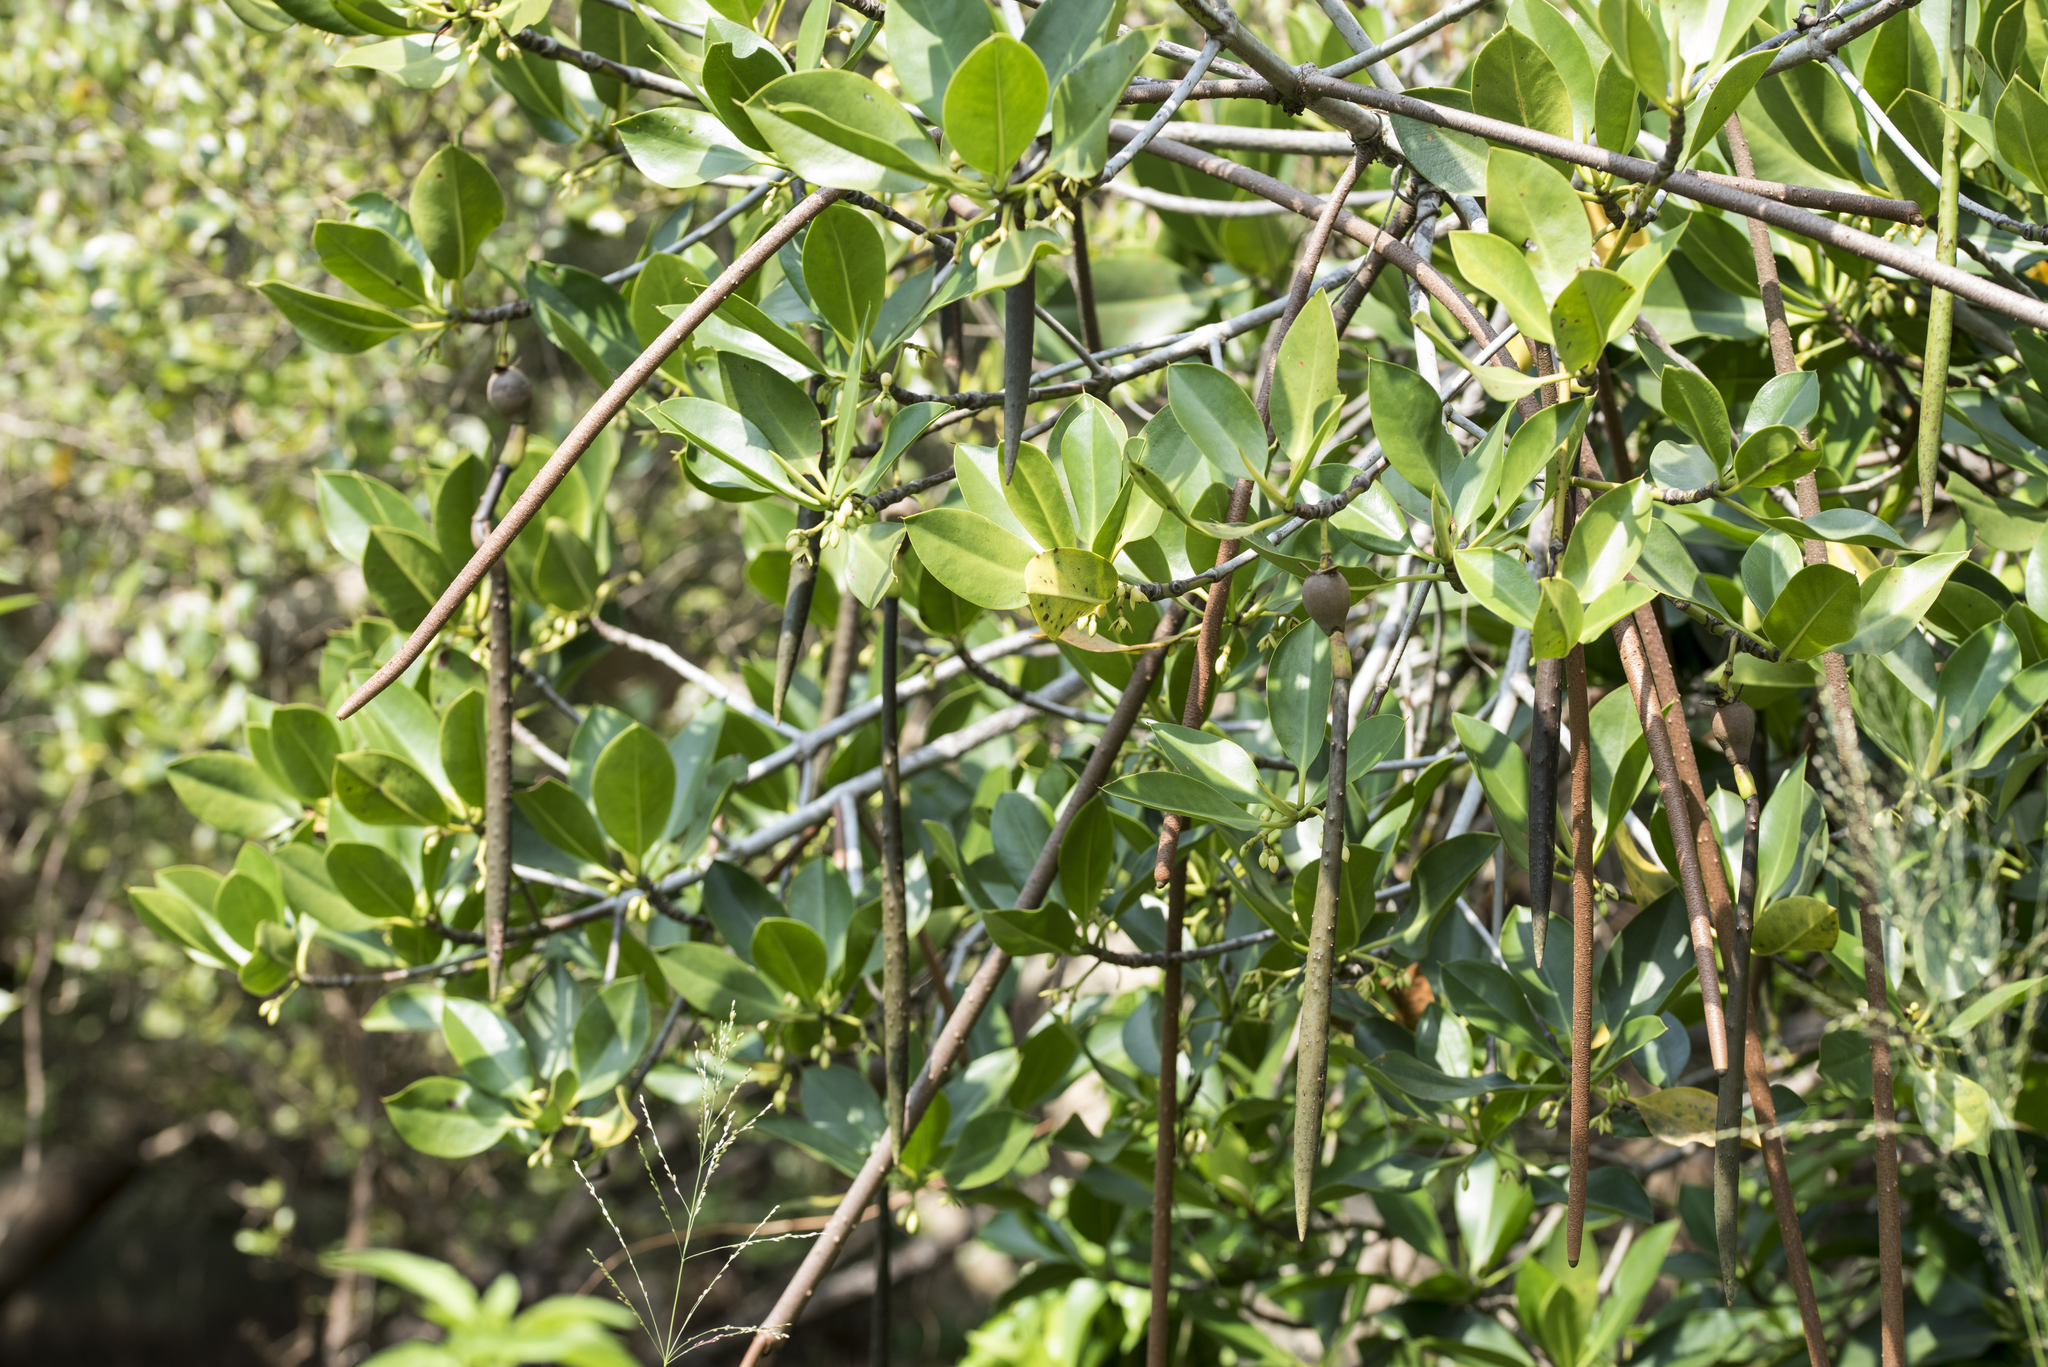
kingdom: Plantae
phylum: Tracheophyta
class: Magnoliopsida
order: Malpighiales
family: Rhizophoraceae
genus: Rhizophora
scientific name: Rhizophora stylosa
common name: Red mangrove
